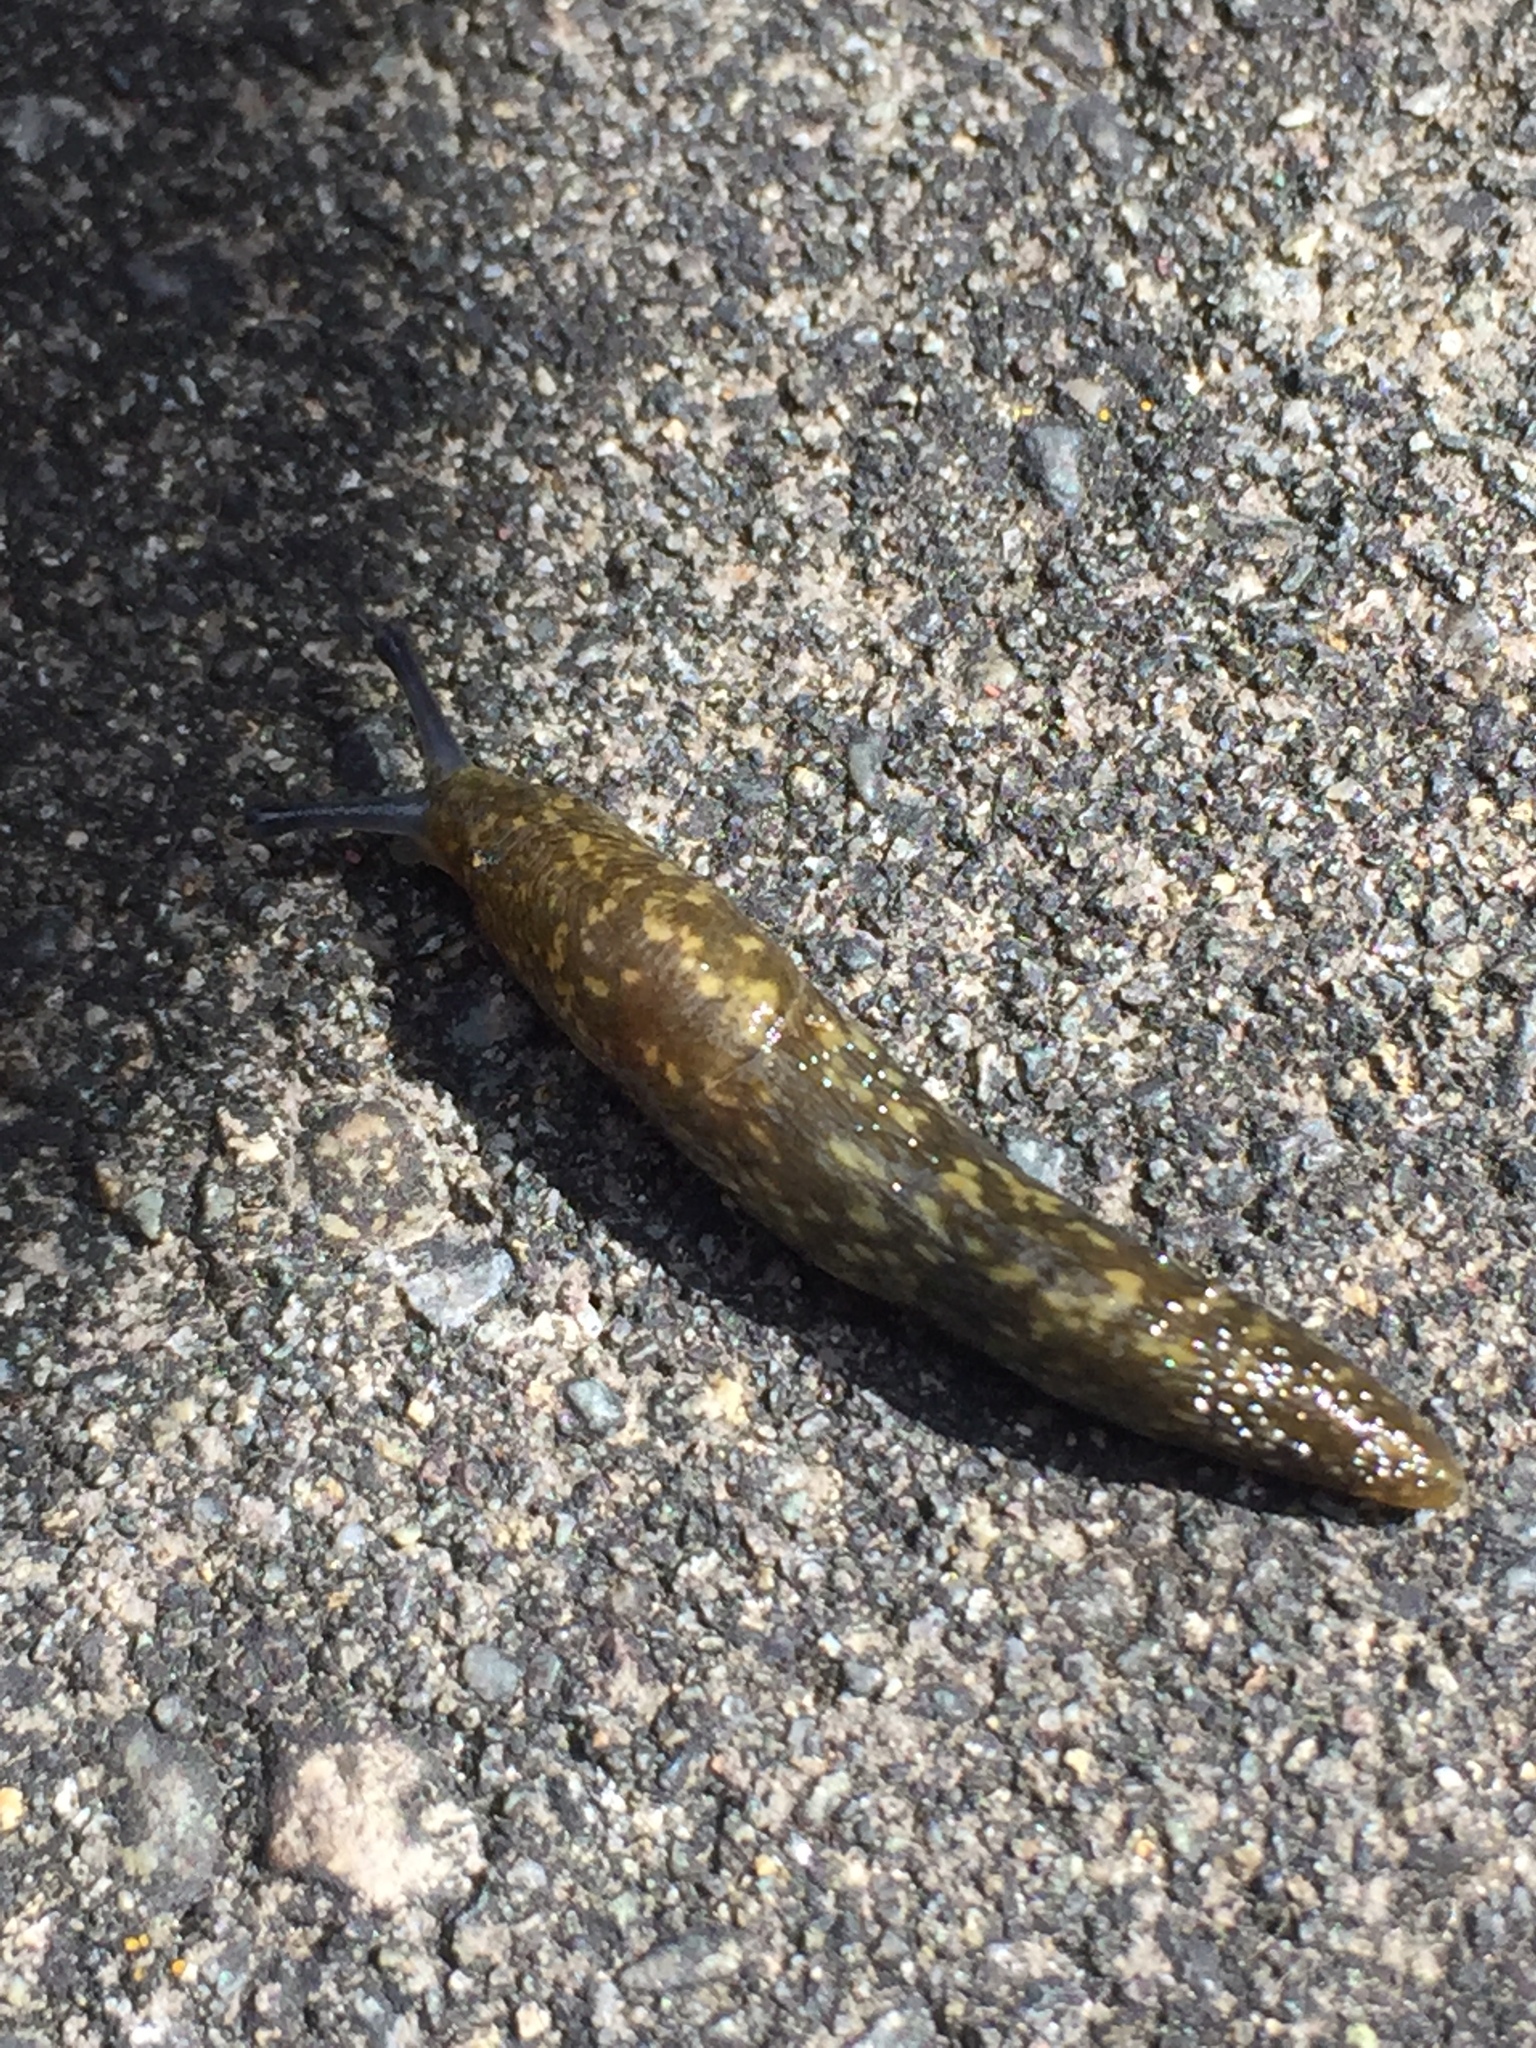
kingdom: Animalia
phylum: Mollusca
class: Gastropoda
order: Stylommatophora
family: Limacidae
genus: Limacus
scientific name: Limacus flavus
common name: Yellow gardenslug
